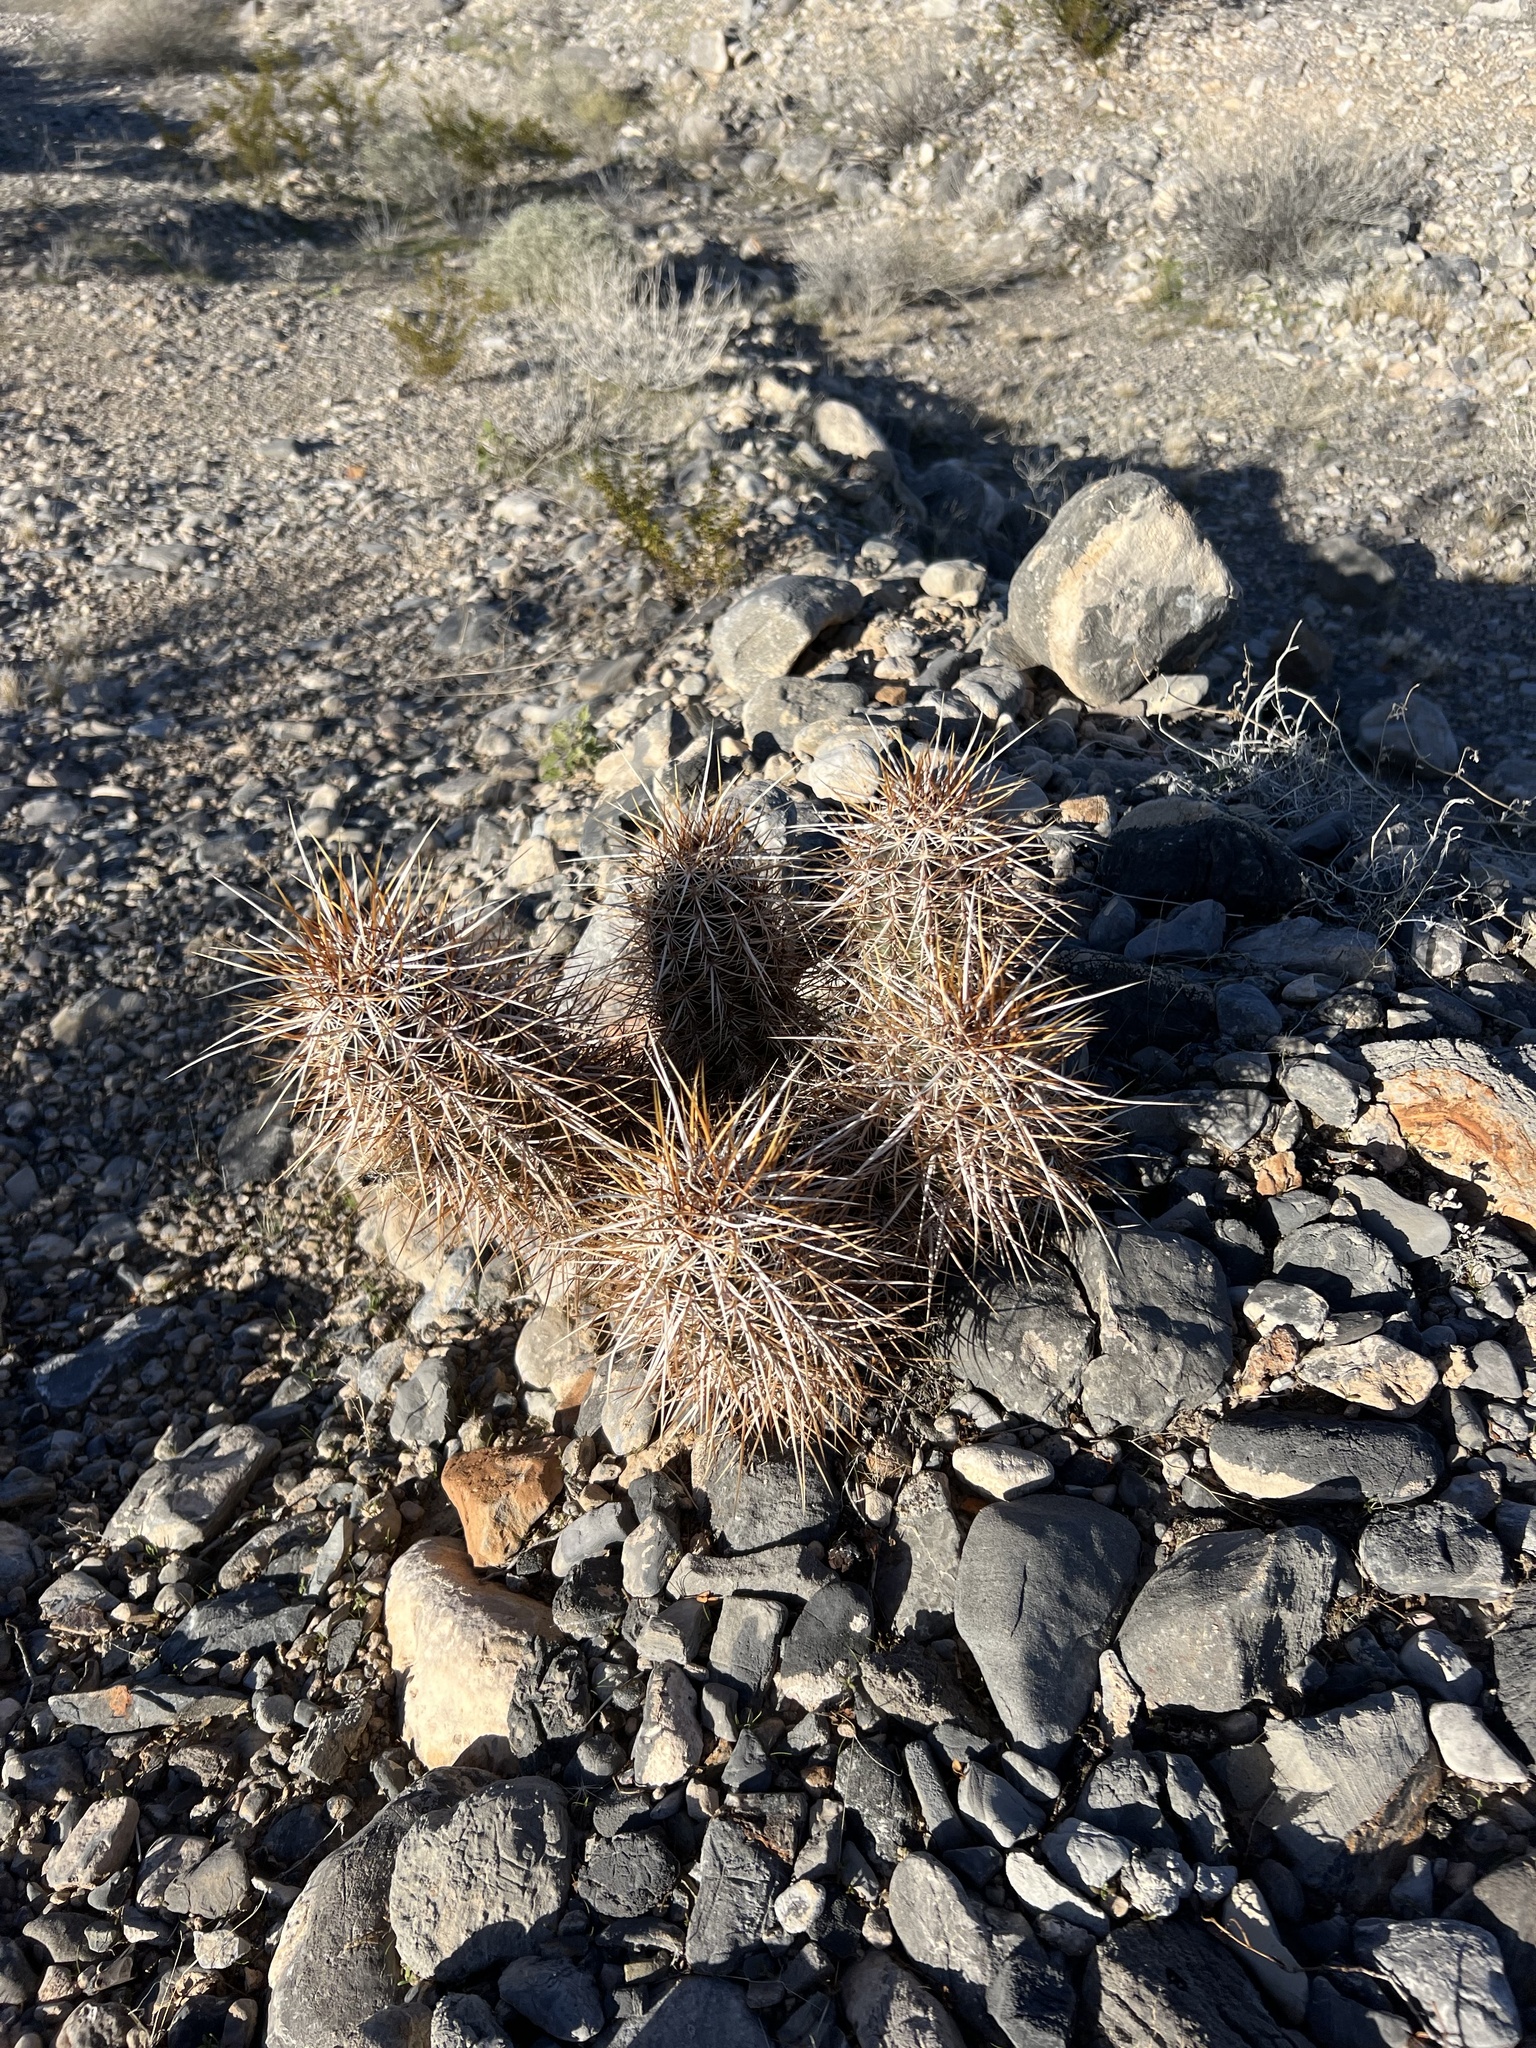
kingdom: Plantae
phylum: Tracheophyta
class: Magnoliopsida
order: Caryophyllales
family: Cactaceae
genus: Echinocereus
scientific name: Echinocereus engelmannii
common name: Engelmann's hedgehog cactus
